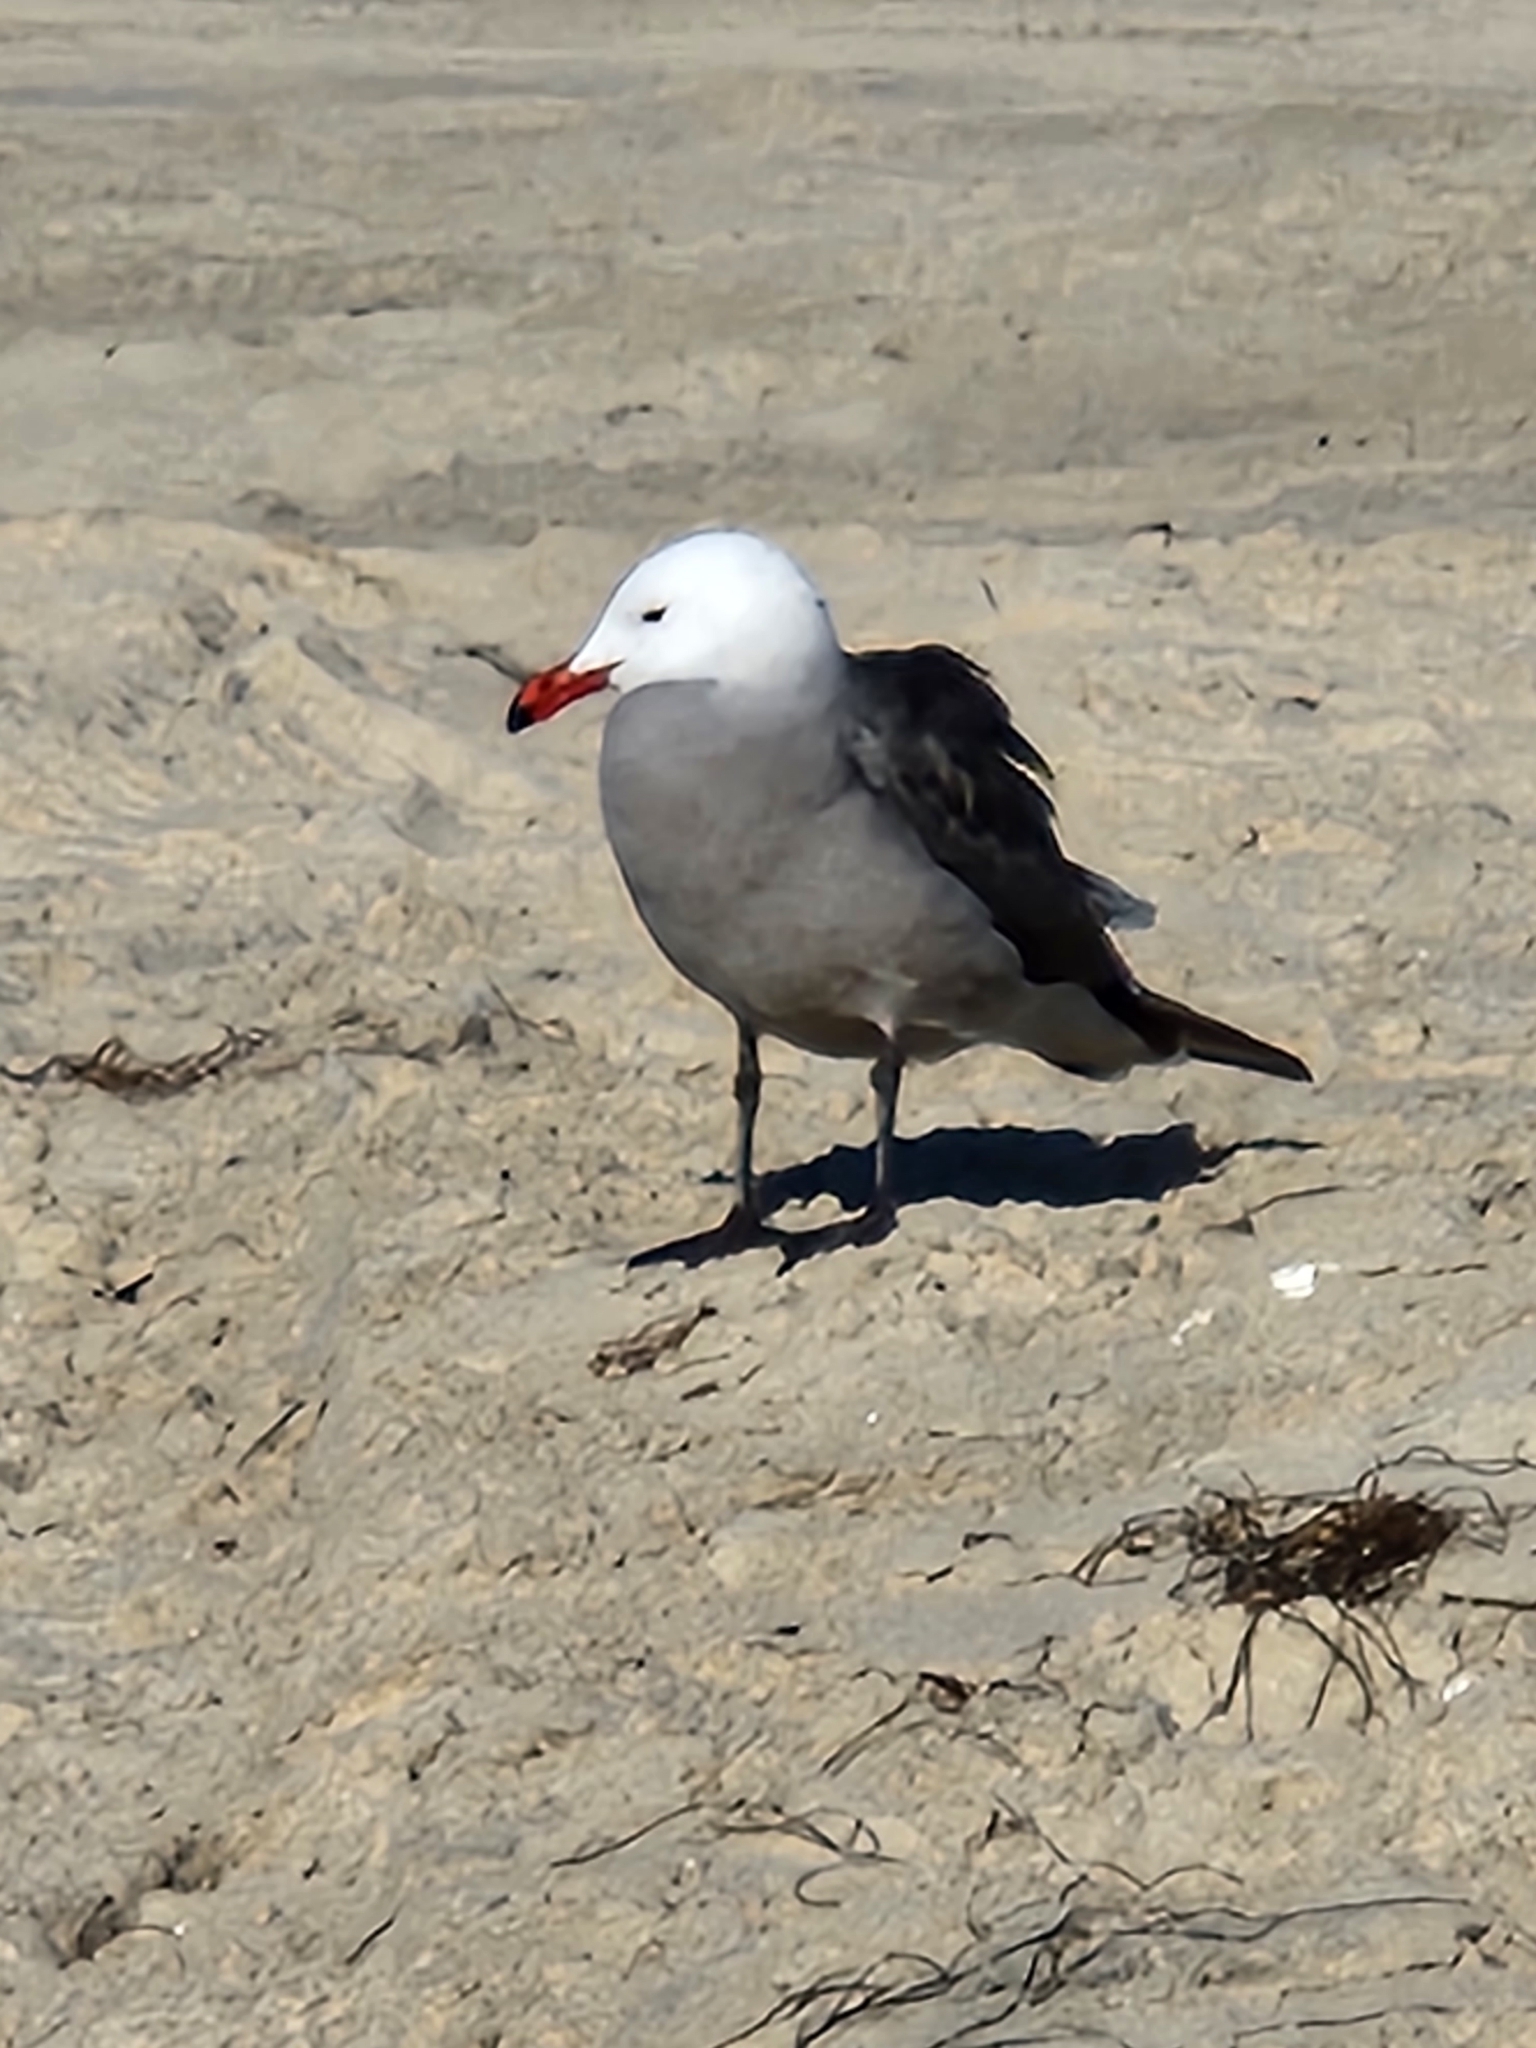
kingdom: Animalia
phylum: Chordata
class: Aves
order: Charadriiformes
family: Laridae
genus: Larus
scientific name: Larus heermanni
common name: Heermann's gull
